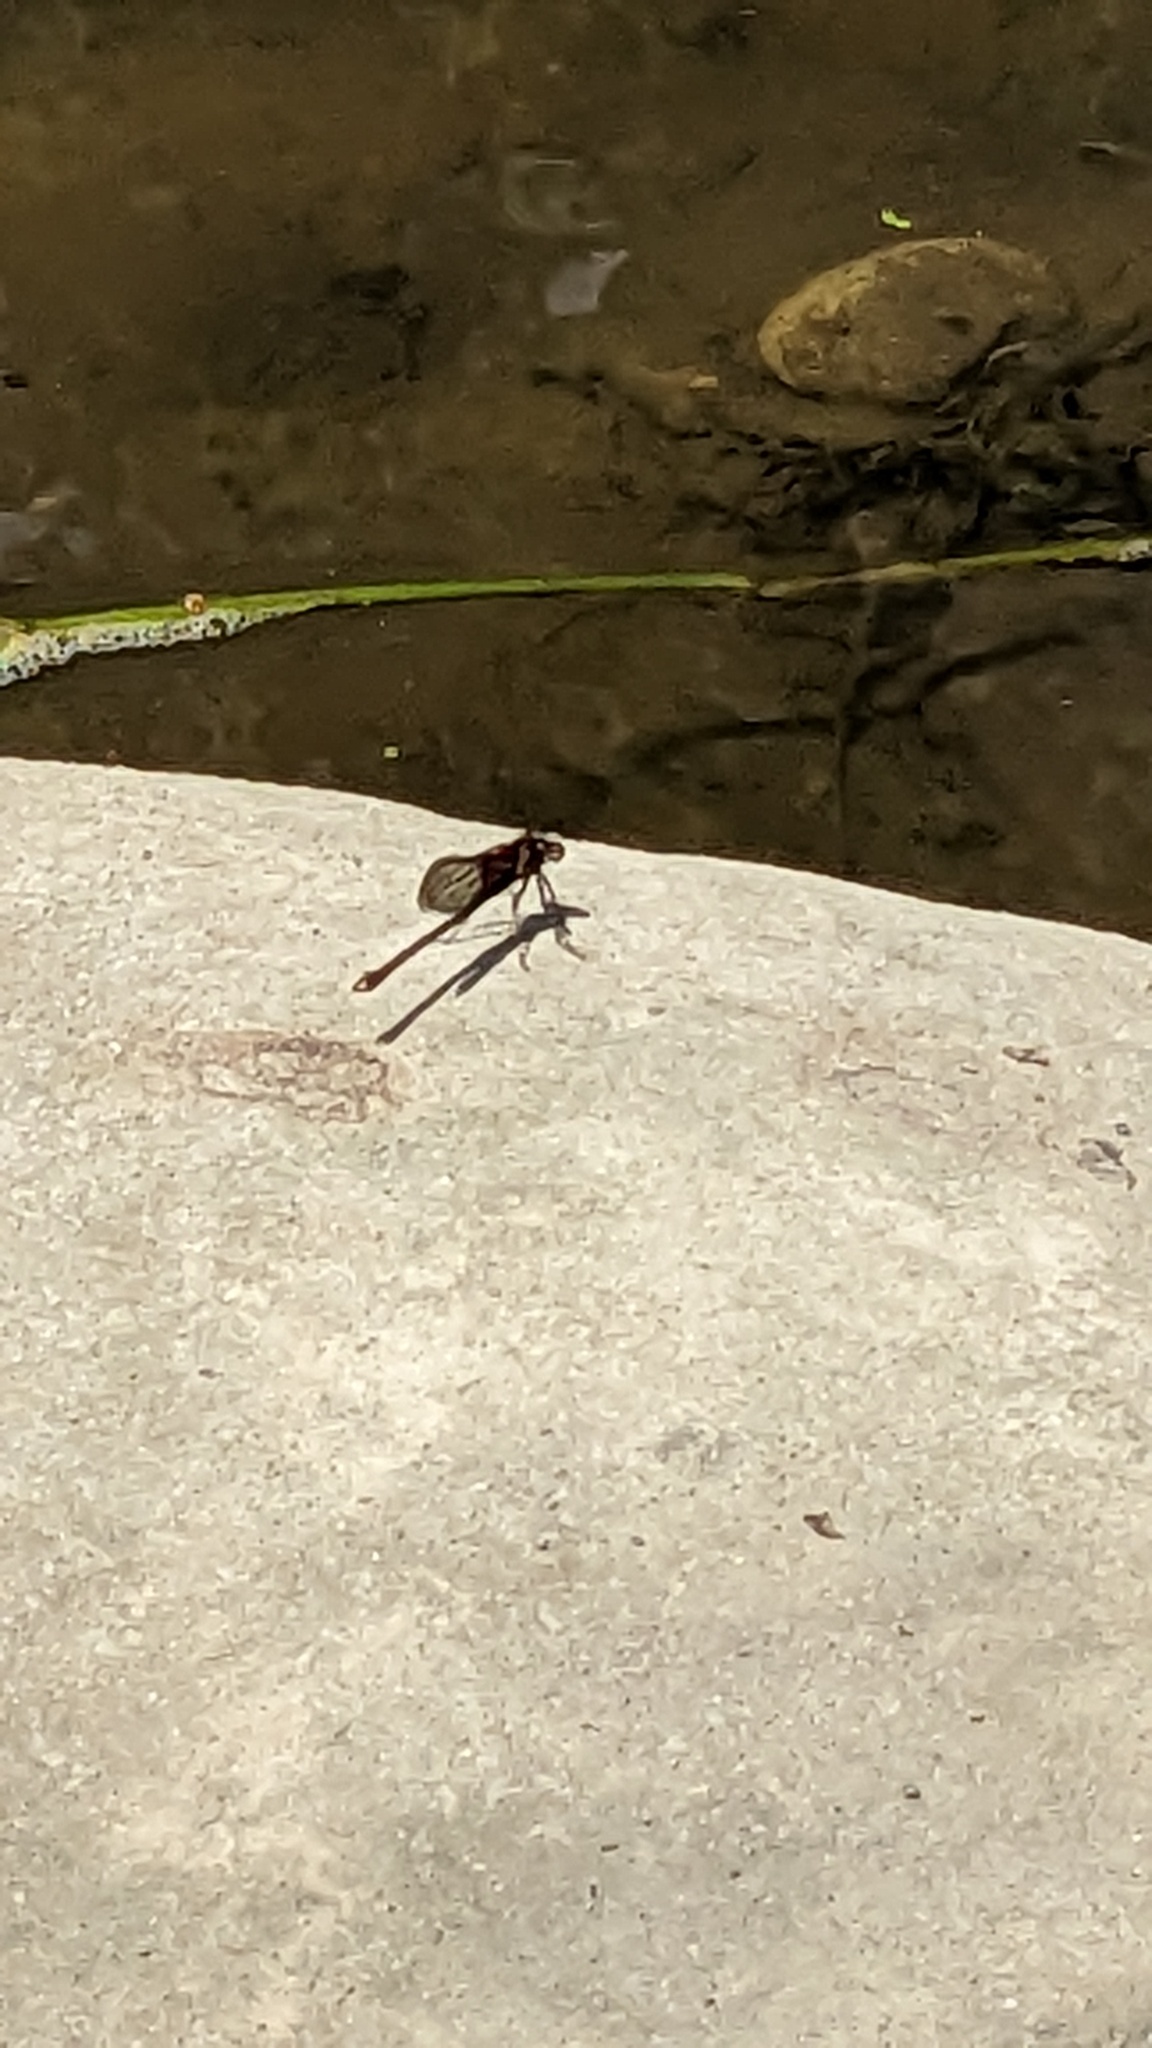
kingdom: Animalia
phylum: Arthropoda
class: Insecta
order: Odonata
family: Calopterygidae
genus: Hetaerina
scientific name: Hetaerina americana
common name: American rubyspot
